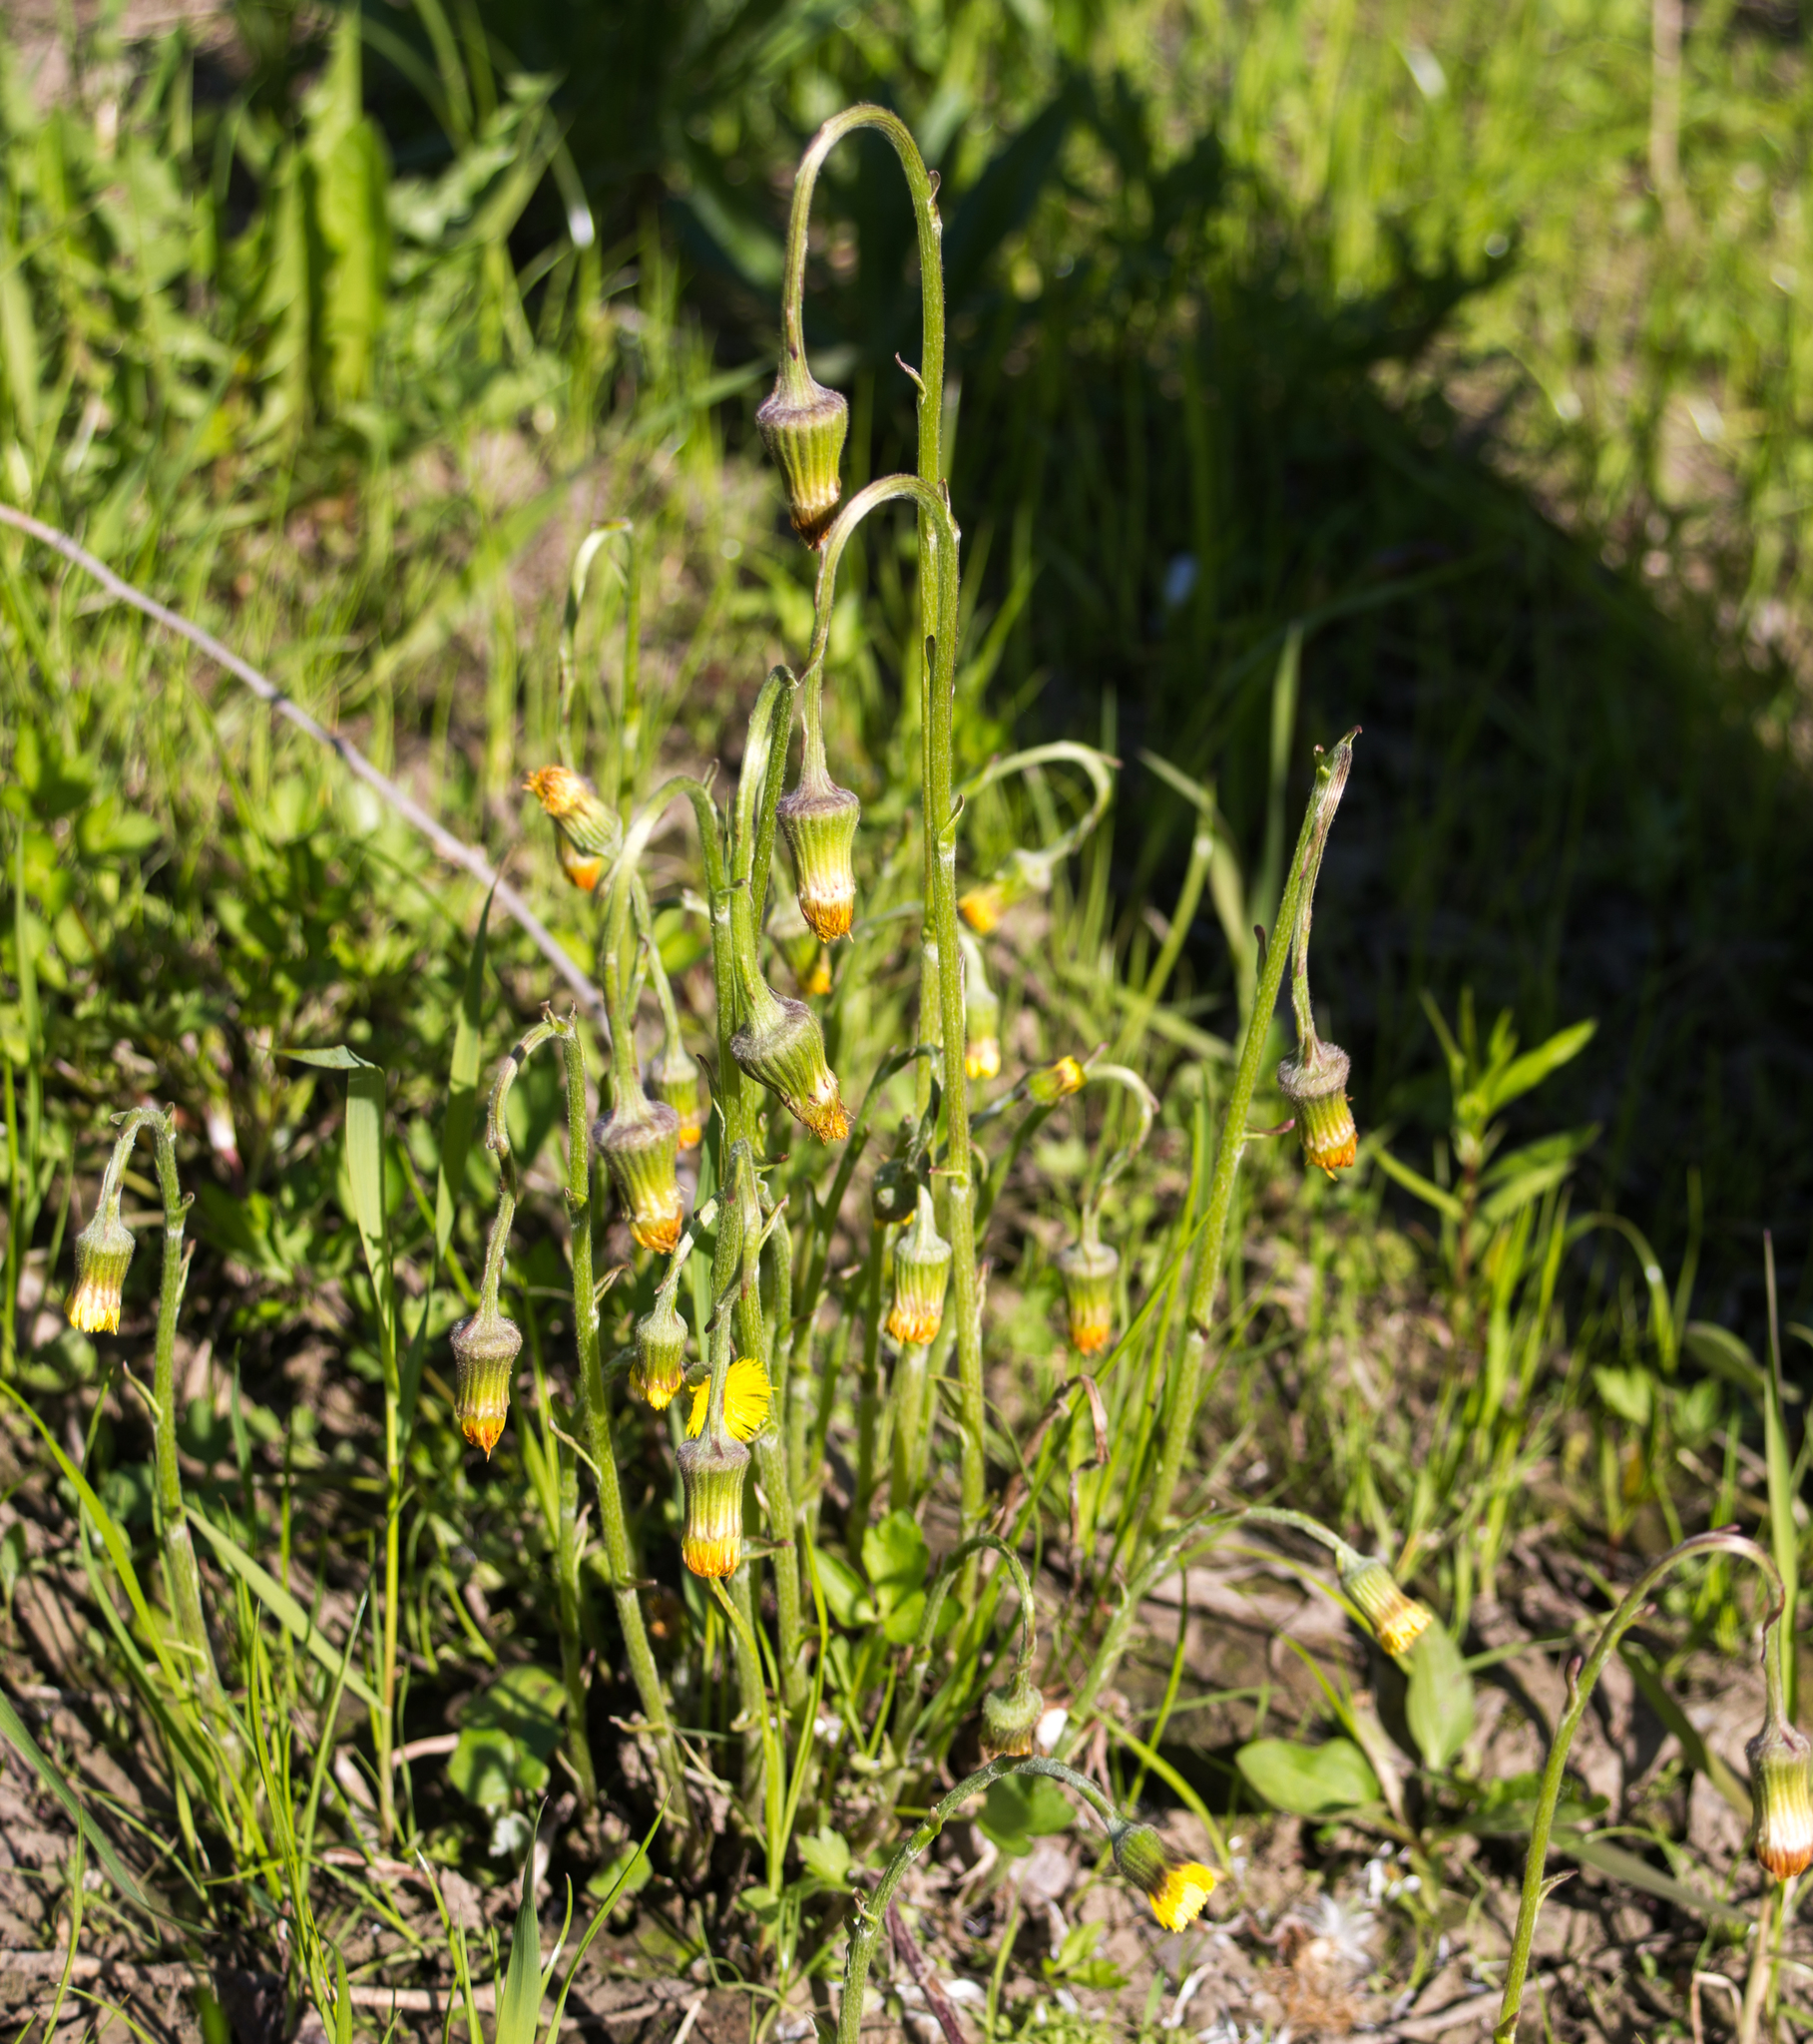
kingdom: Plantae
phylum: Tracheophyta
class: Magnoliopsida
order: Asterales
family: Asteraceae
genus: Tussilago
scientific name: Tussilago farfara
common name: Coltsfoot
